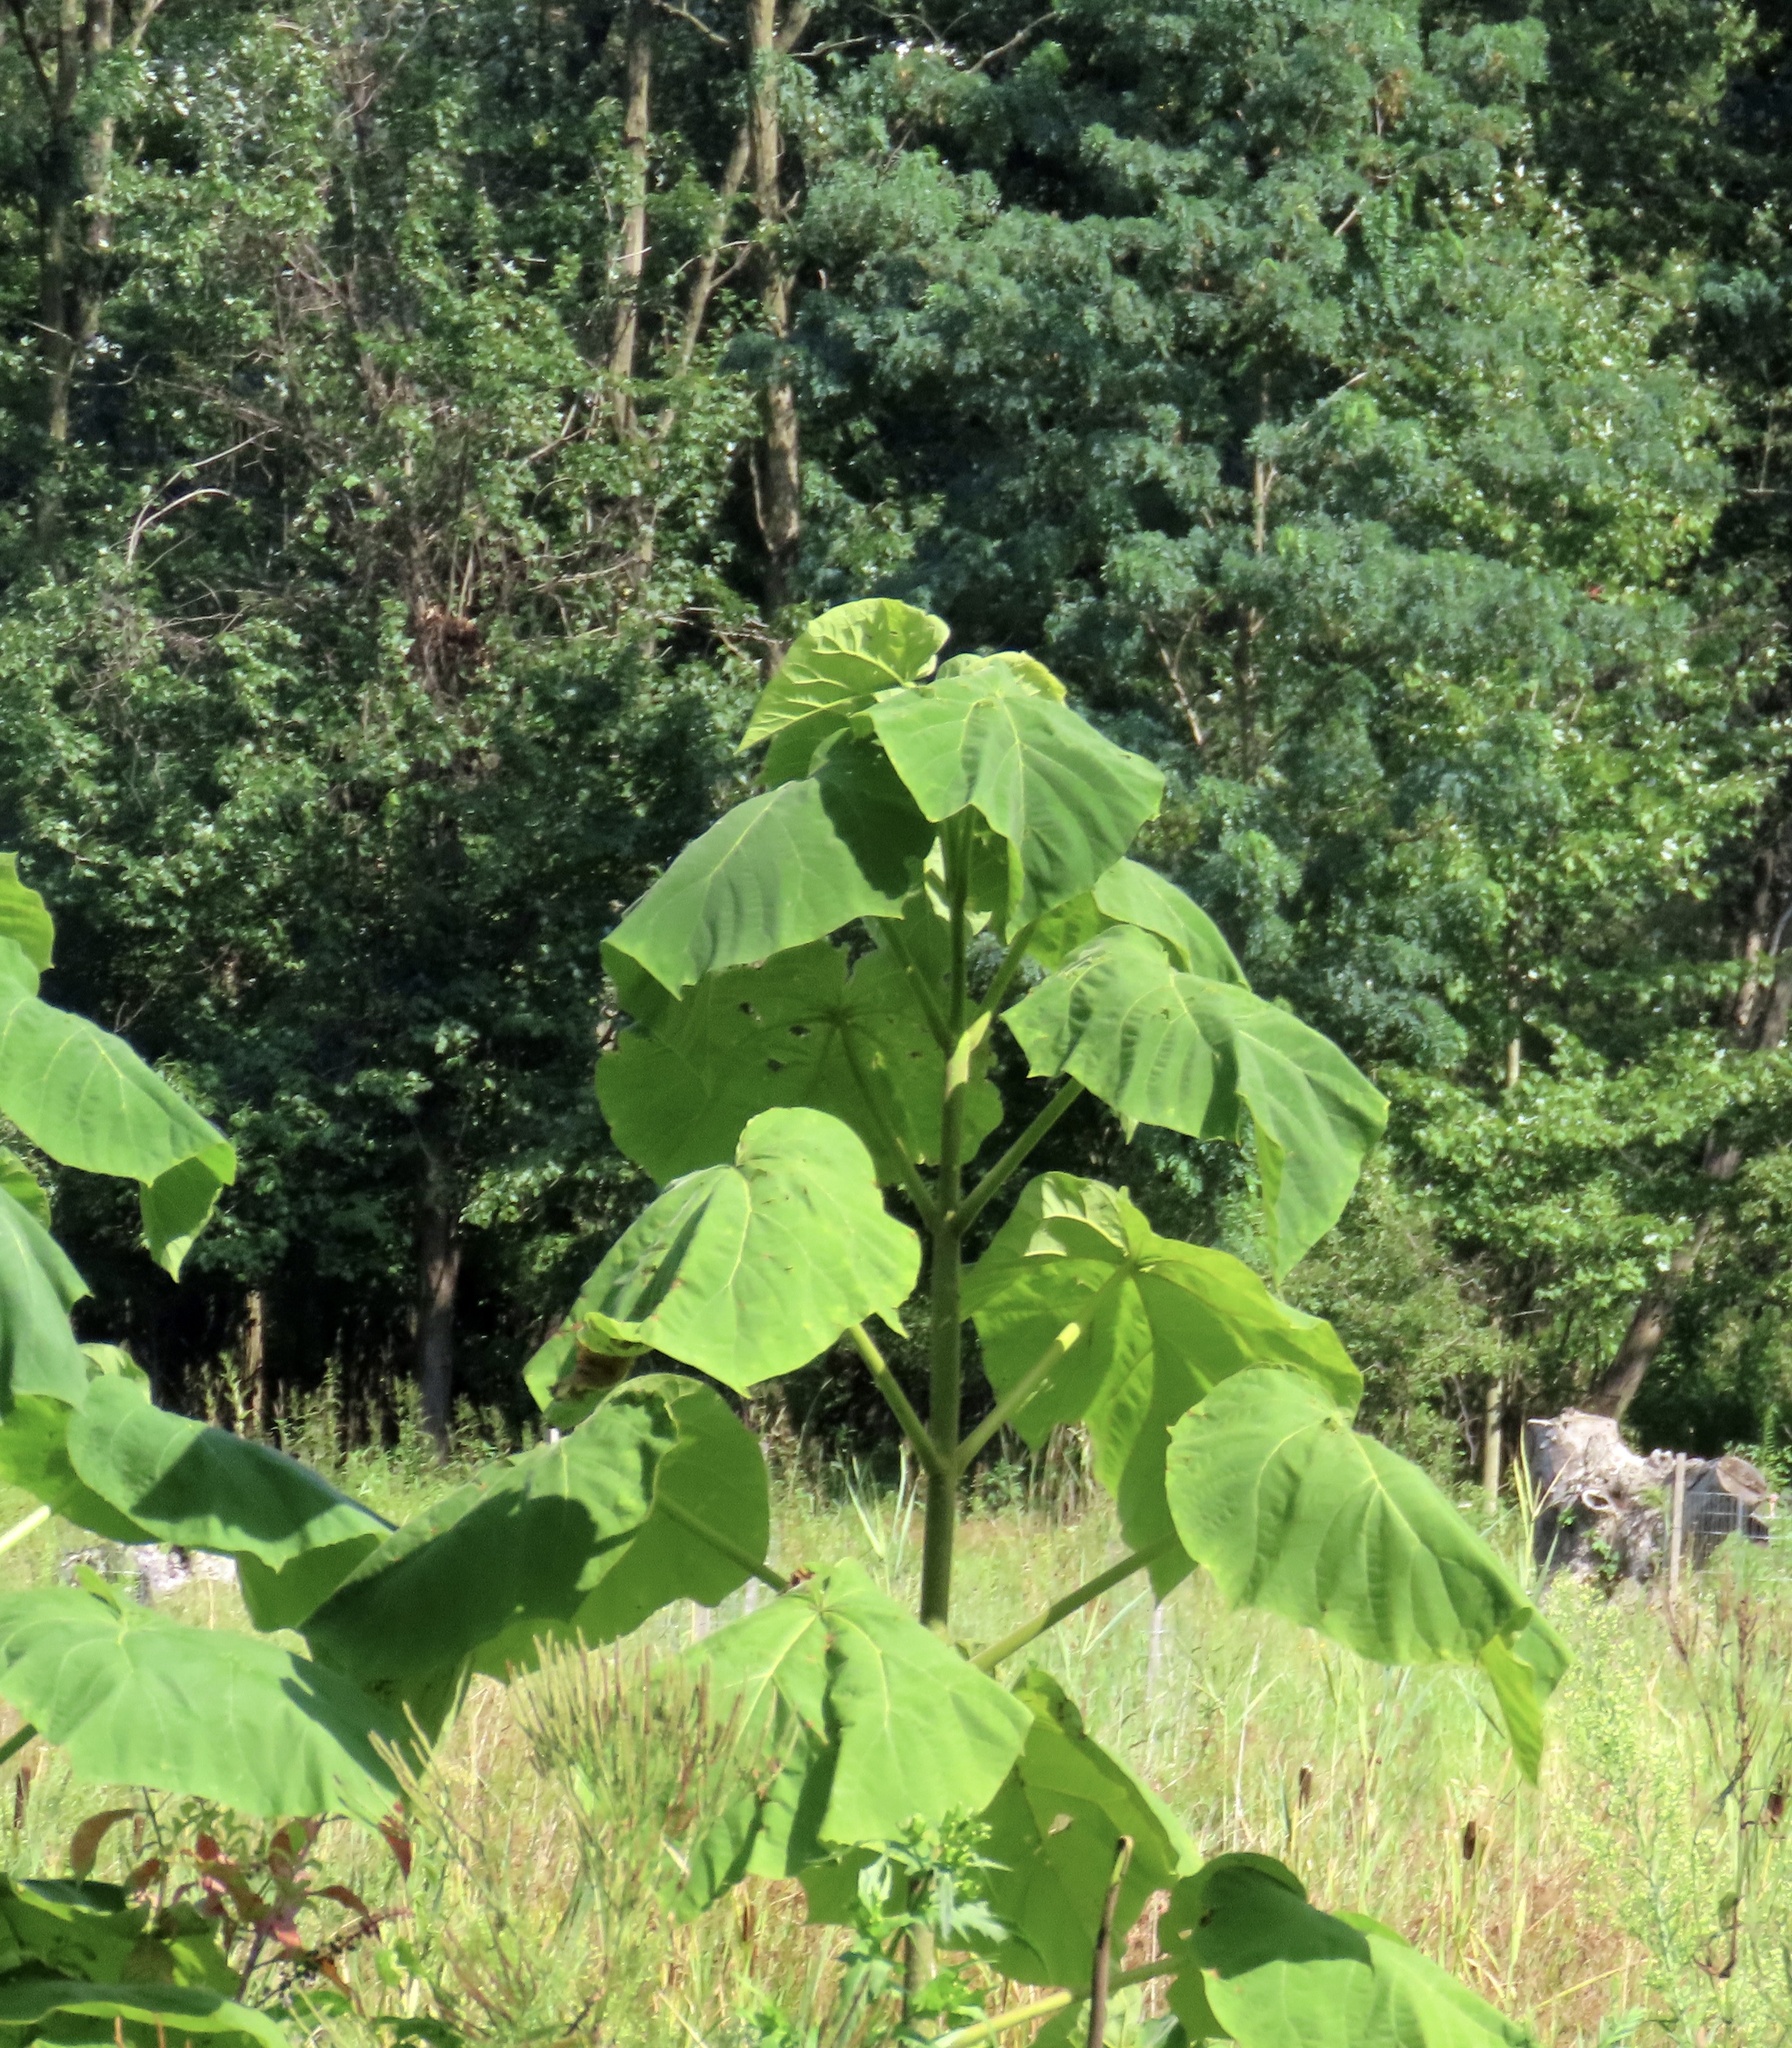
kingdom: Plantae
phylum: Tracheophyta
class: Magnoliopsida
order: Lamiales
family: Paulowniaceae
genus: Paulownia
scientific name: Paulownia tomentosa
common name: Foxglove-tree
